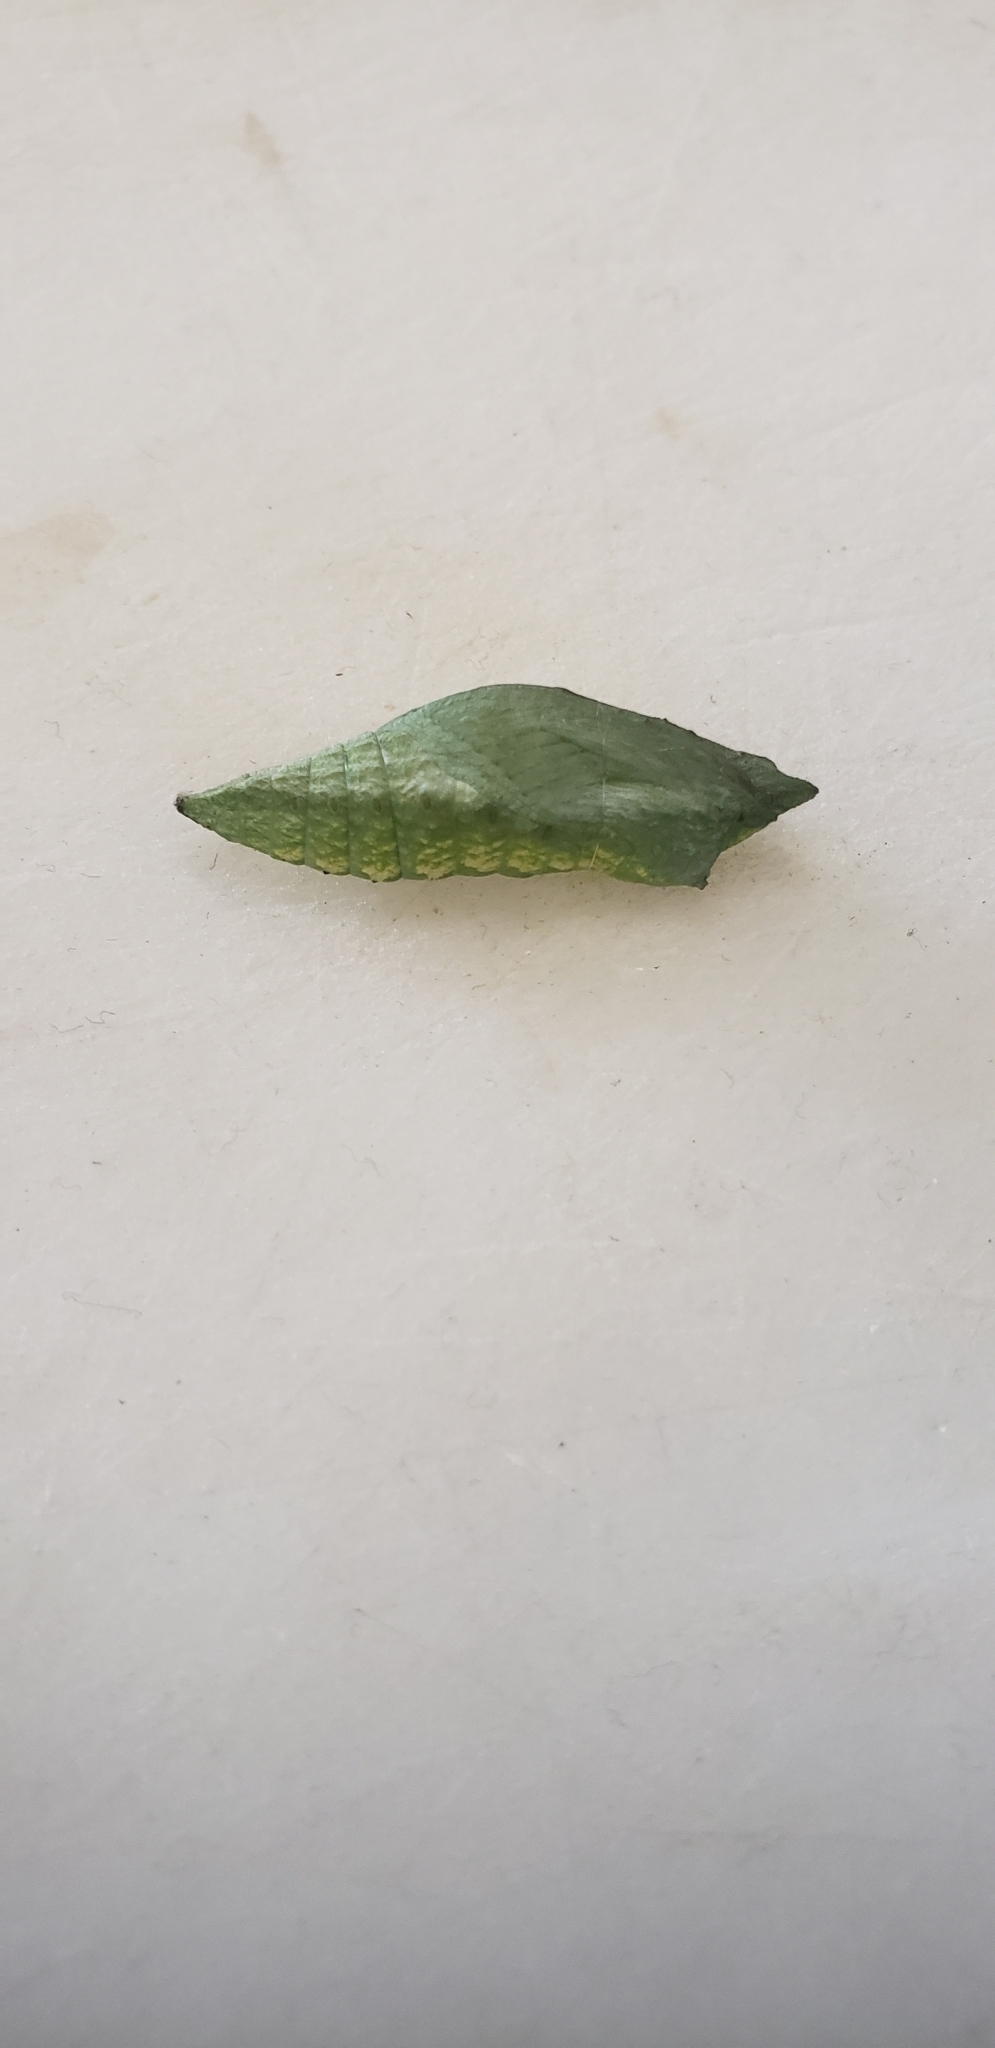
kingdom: Animalia
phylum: Arthropoda
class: Insecta
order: Lepidoptera
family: Papilionidae
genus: Papilio
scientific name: Papilio polyxenes
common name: Black swallowtail
